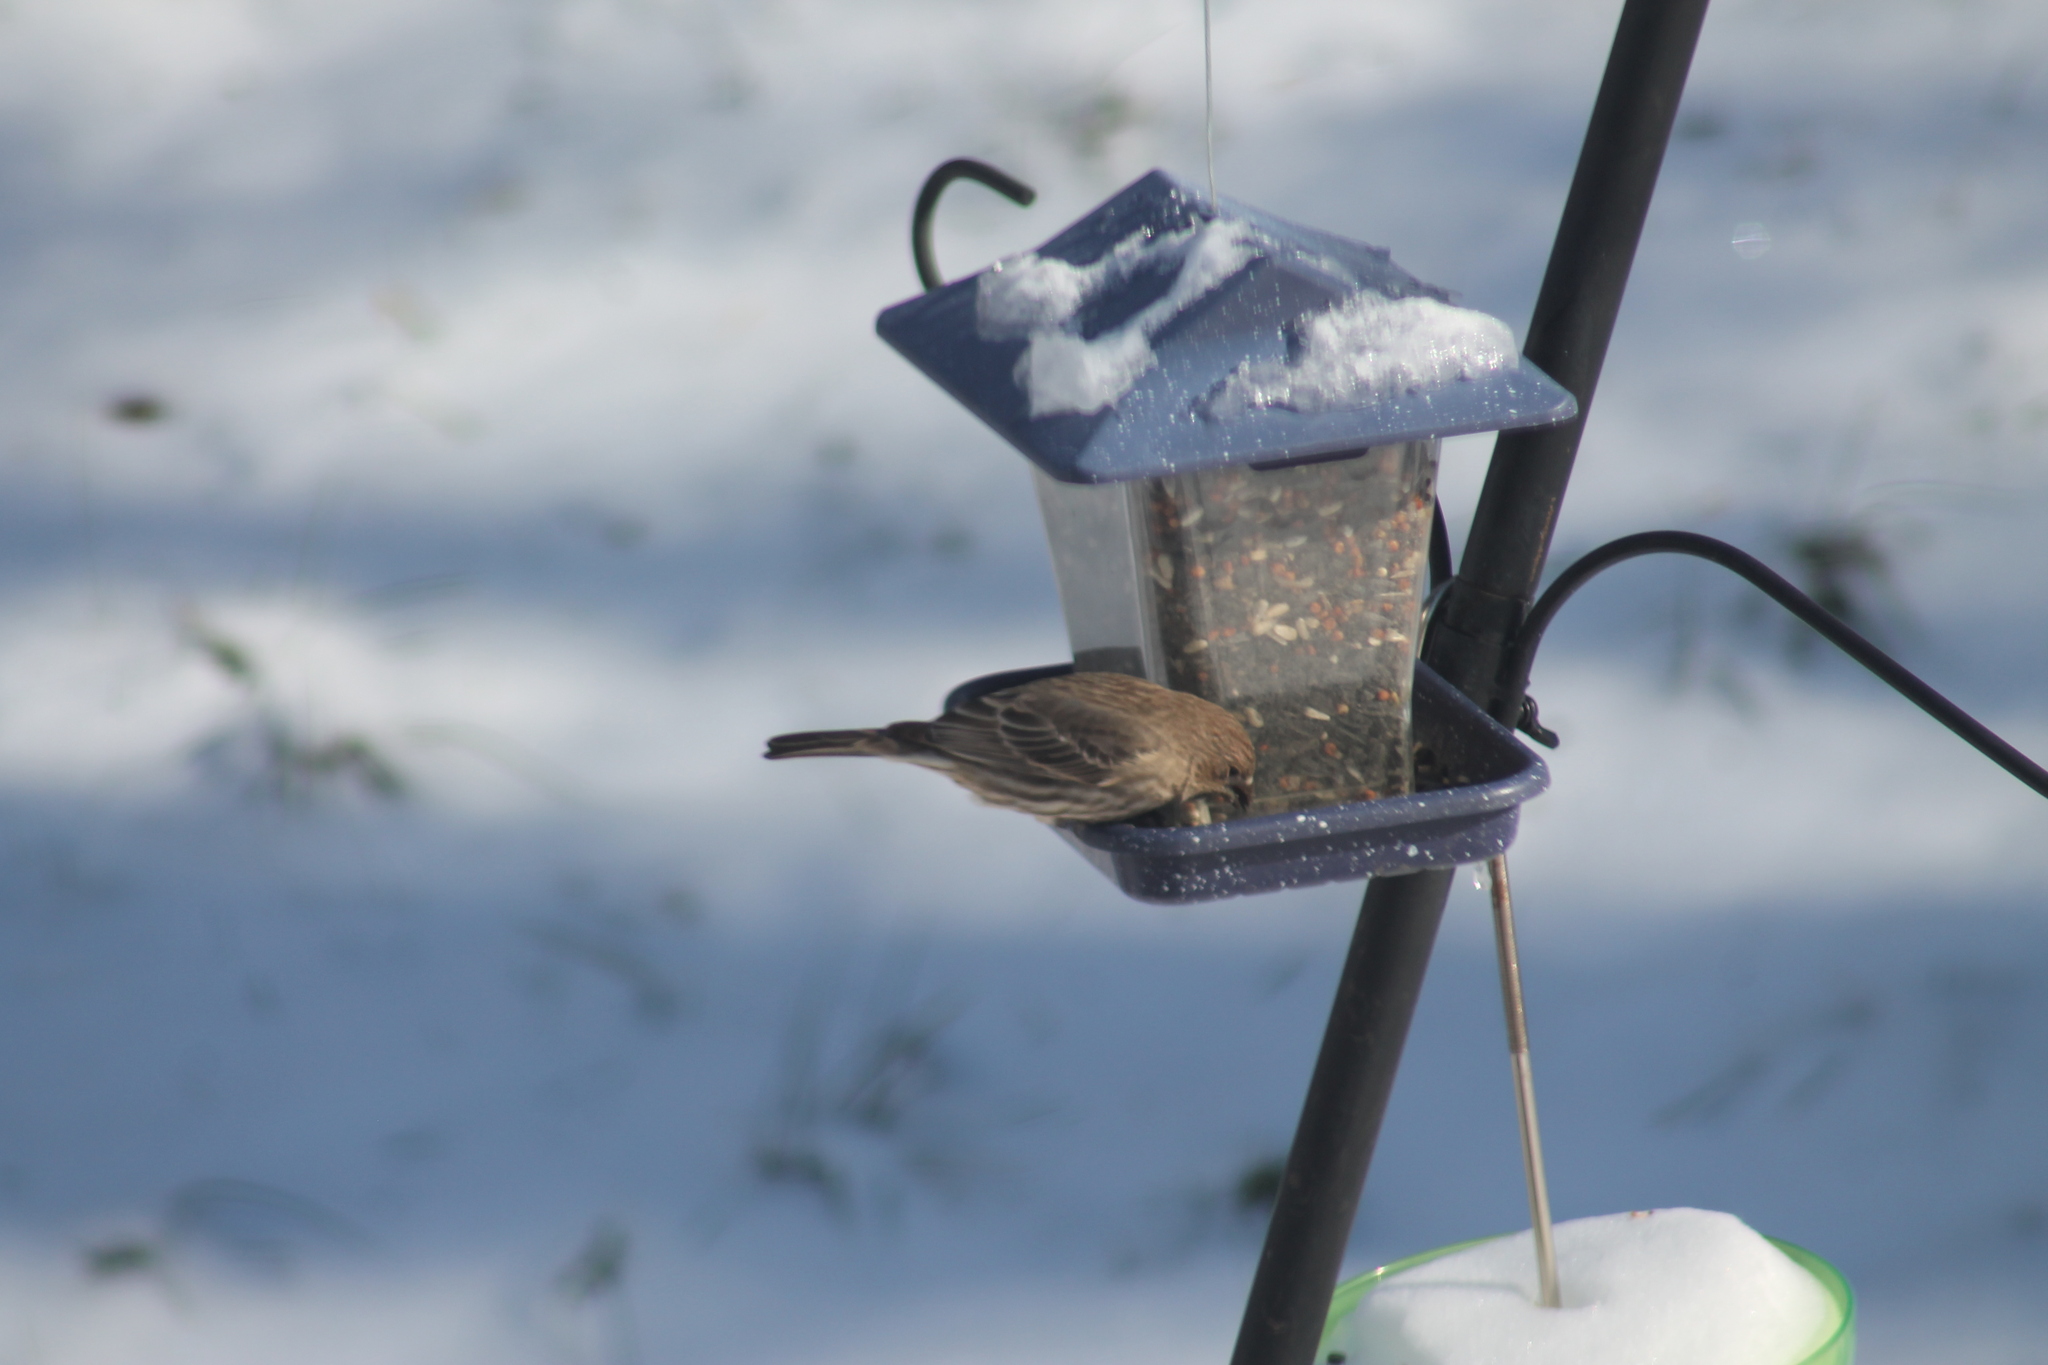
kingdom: Animalia
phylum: Chordata
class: Aves
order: Passeriformes
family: Fringillidae
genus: Haemorhous
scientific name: Haemorhous mexicanus
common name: House finch
